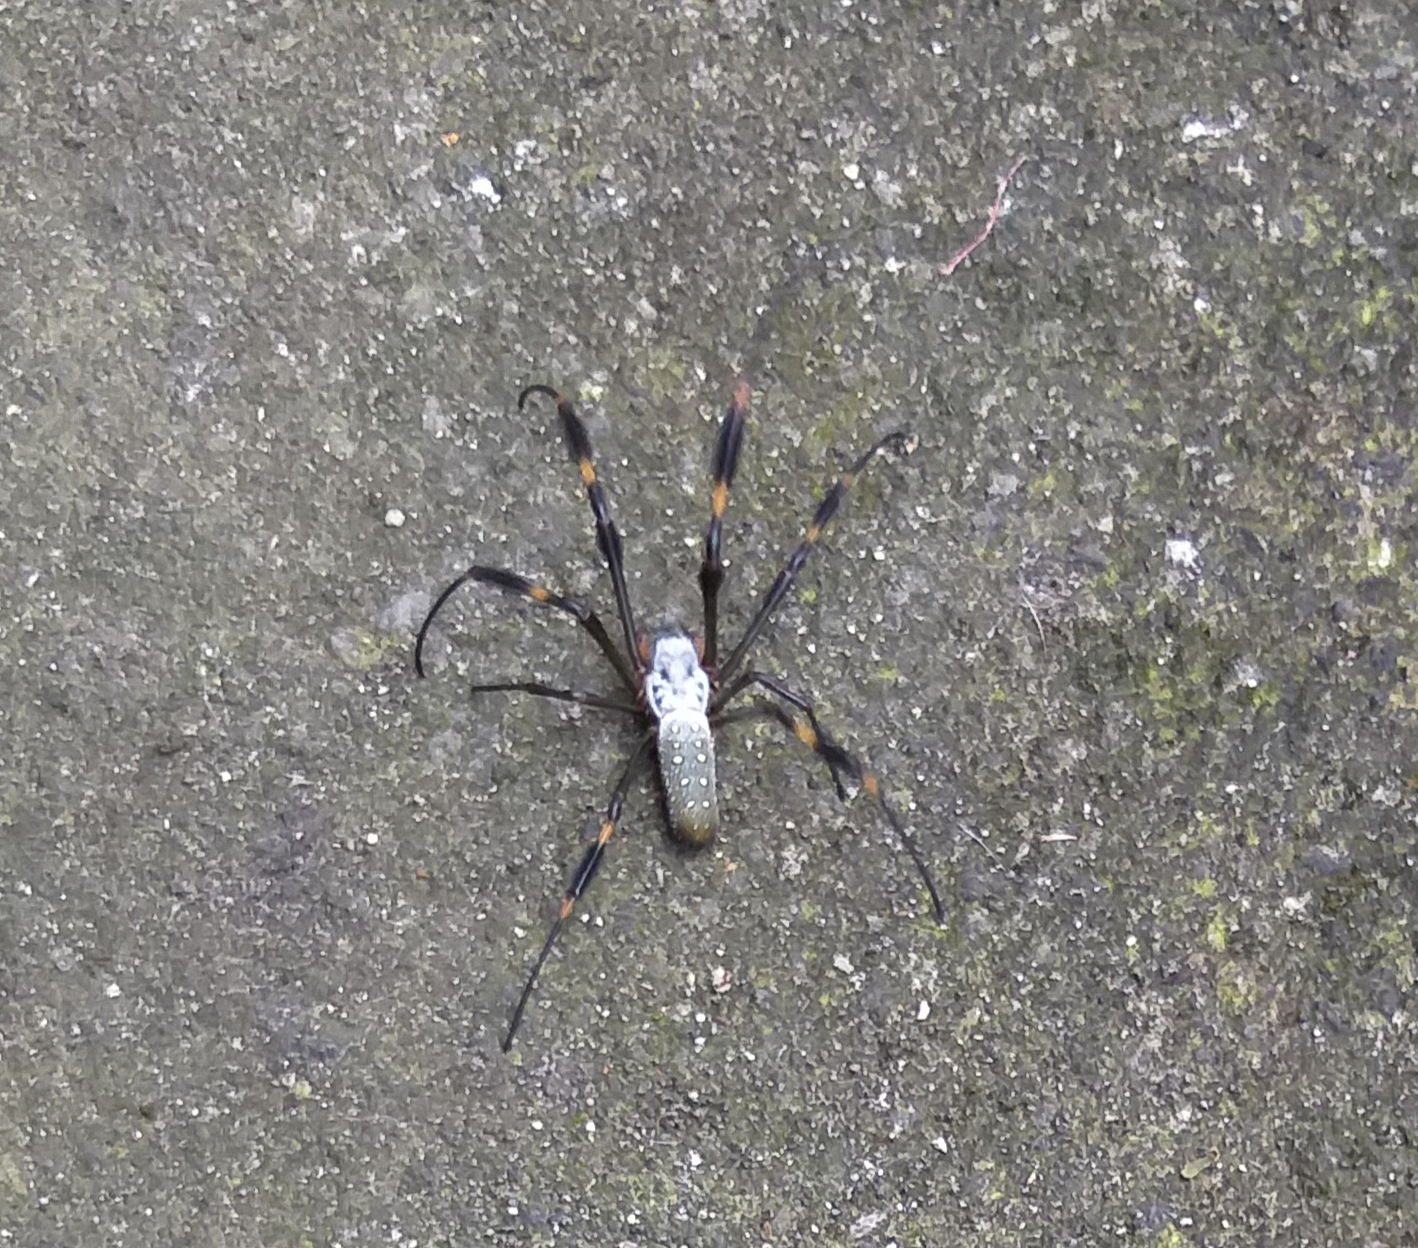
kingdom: Animalia
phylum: Arthropoda
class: Arachnida
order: Araneae
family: Araneidae
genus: Trichonephila
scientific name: Trichonephila clavipes
